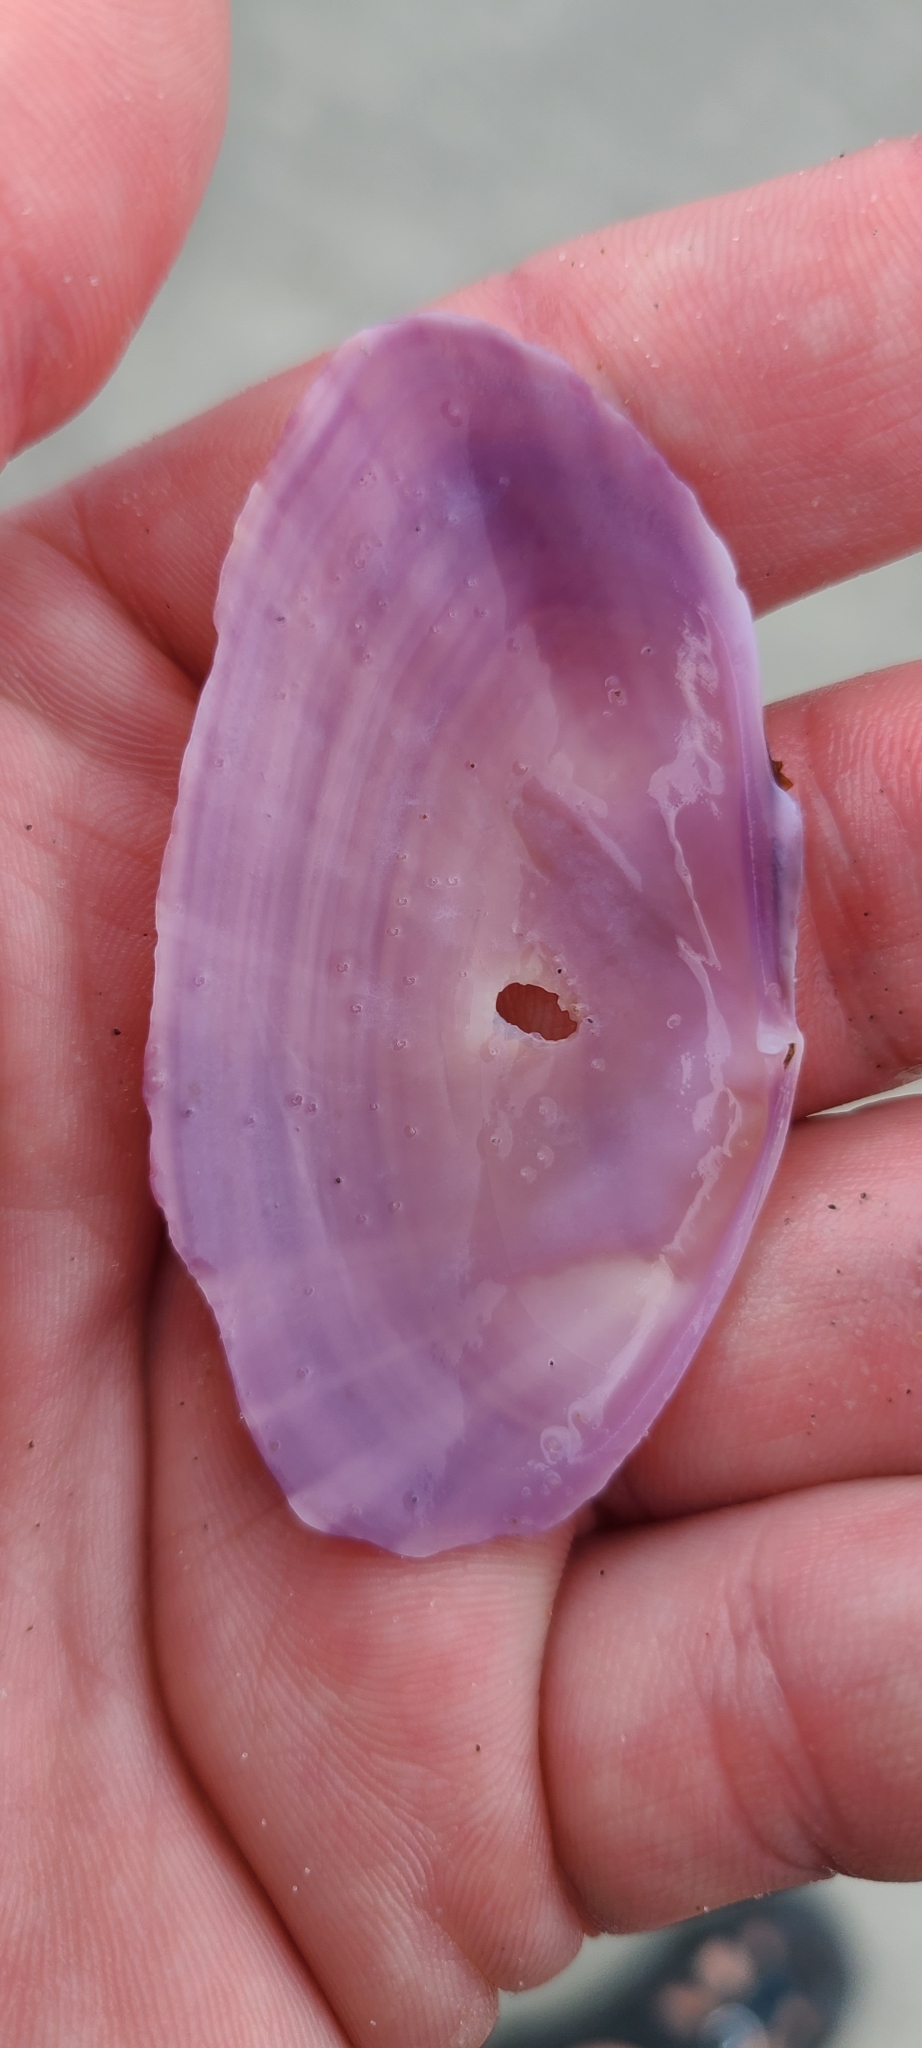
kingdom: Animalia
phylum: Mollusca
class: Bivalvia
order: Cardiida
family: Psammobiidae
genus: Gari
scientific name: Gari convexa
